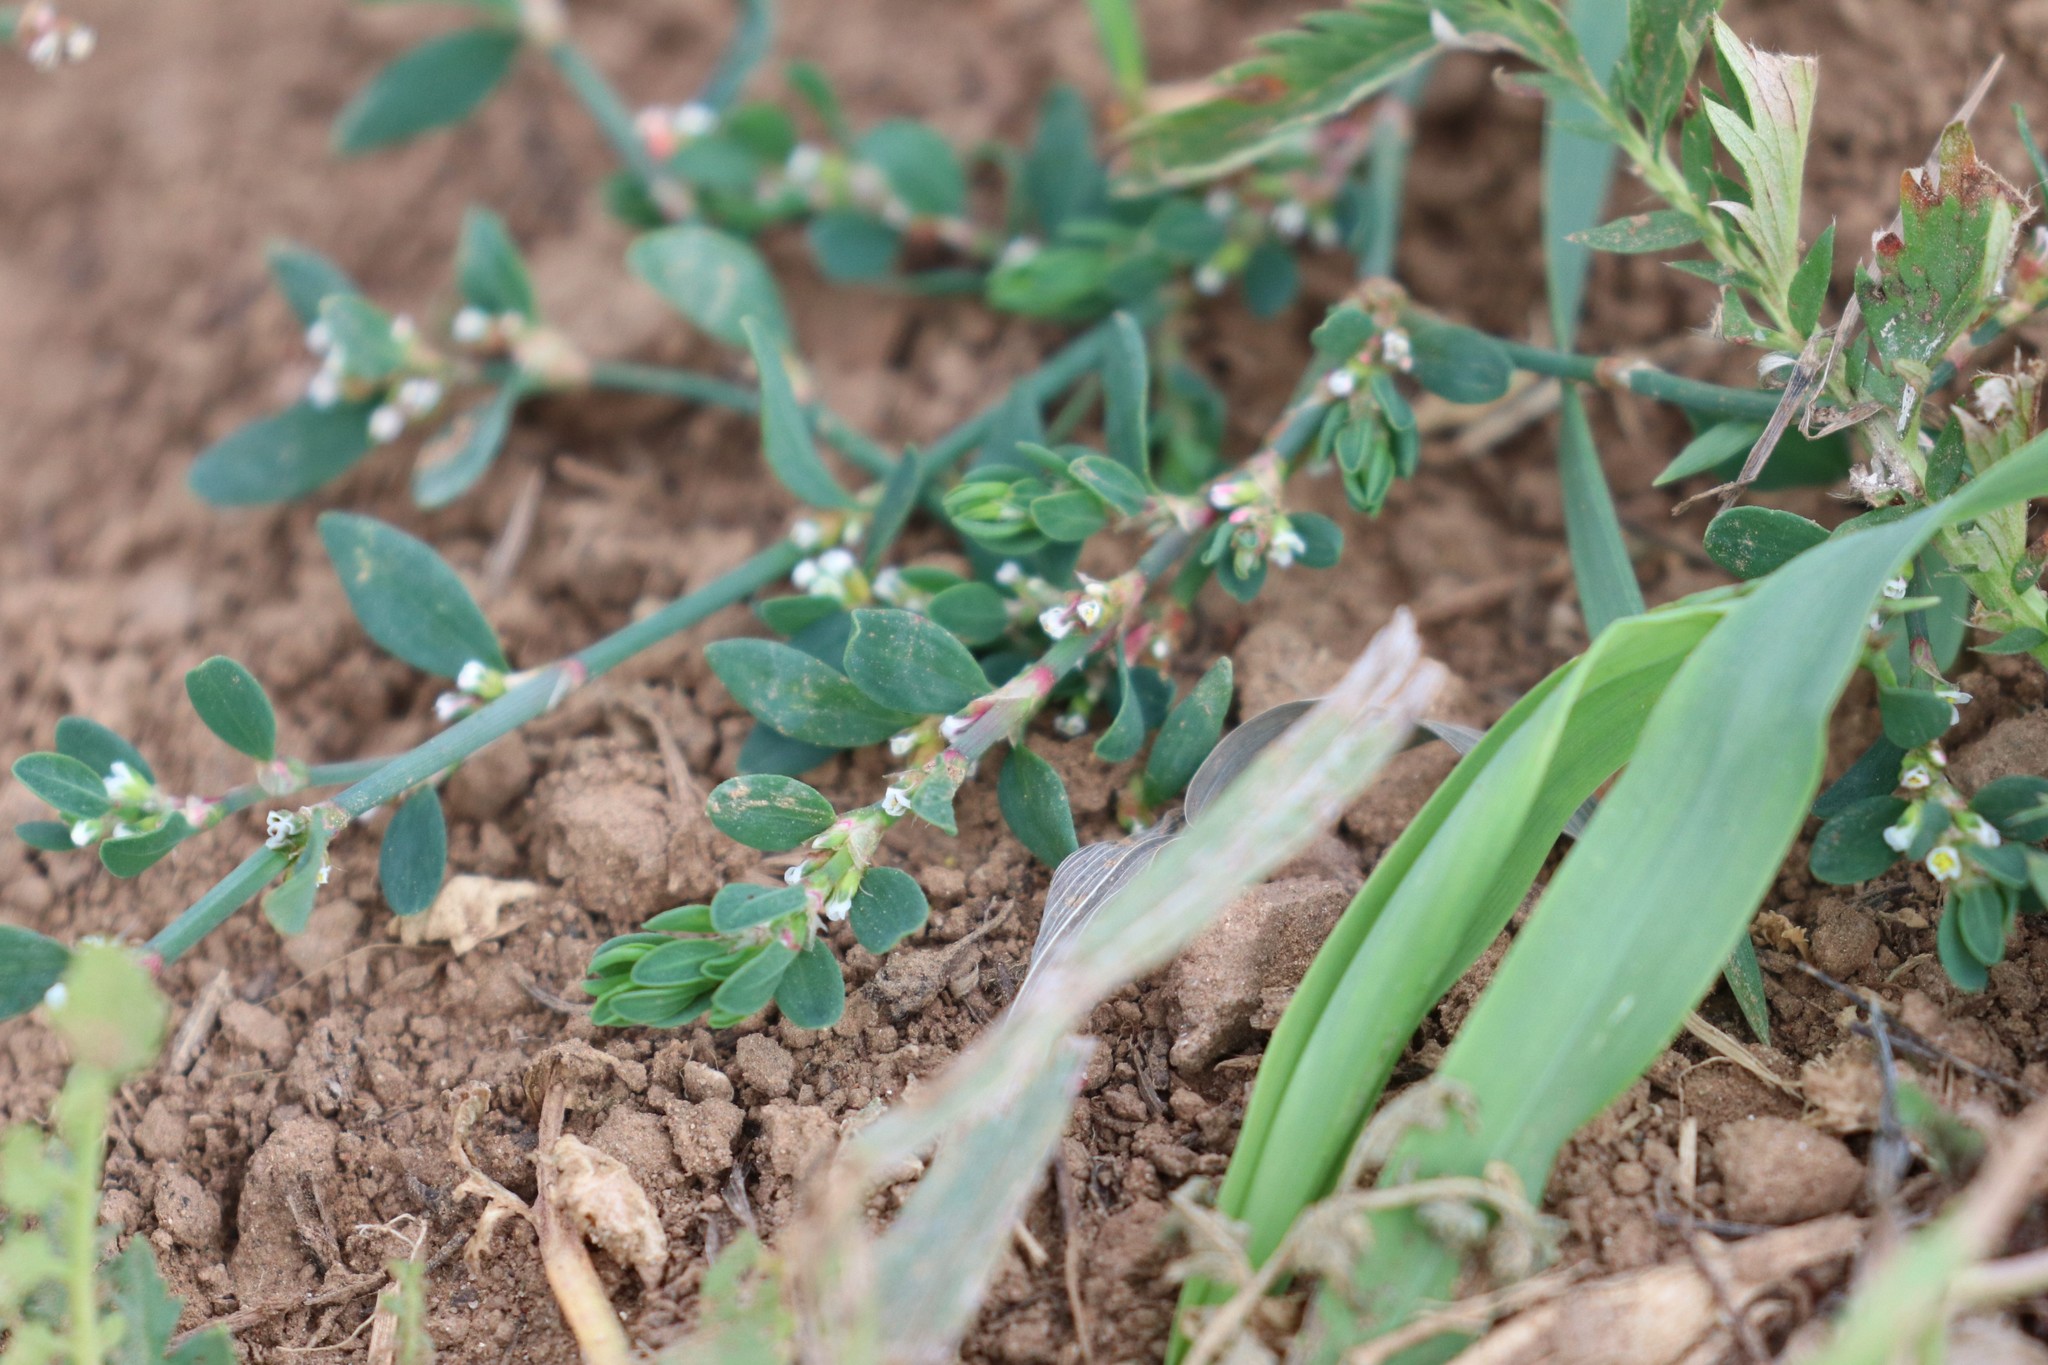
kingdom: Plantae
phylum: Tracheophyta
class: Magnoliopsida
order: Caryophyllales
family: Polygonaceae
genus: Polygonum
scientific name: Polygonum aviculare
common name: Prostrate knotweed
